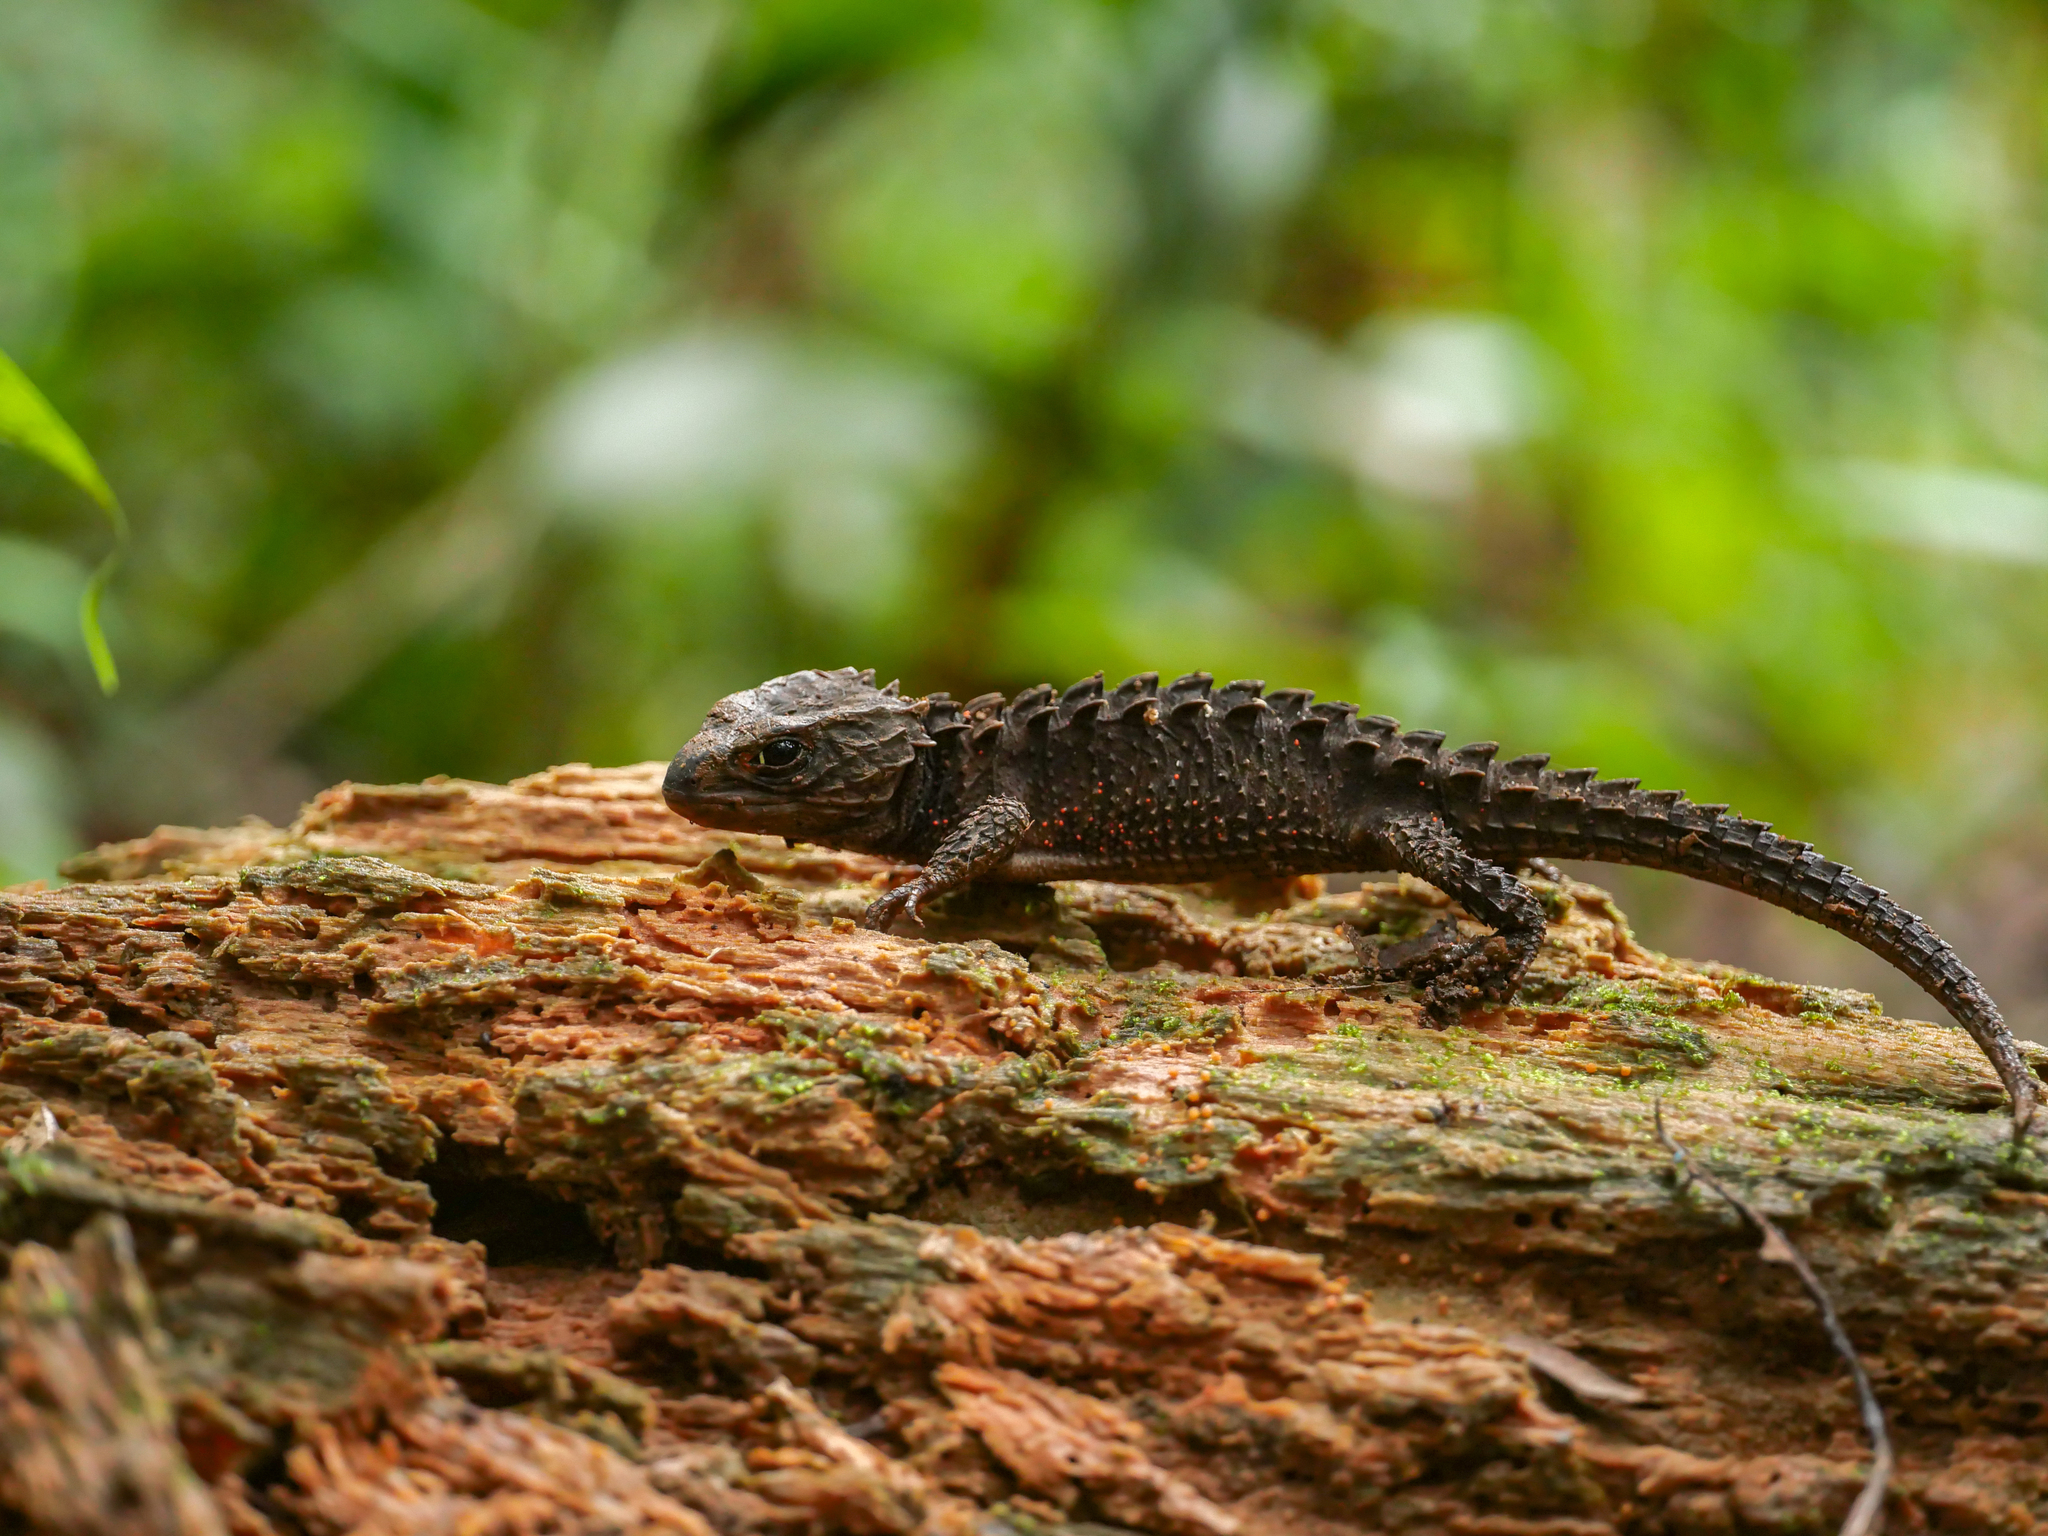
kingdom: Animalia
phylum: Chordata
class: Squamata
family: Scincidae
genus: Tribolonotus
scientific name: Tribolonotus gracilis
